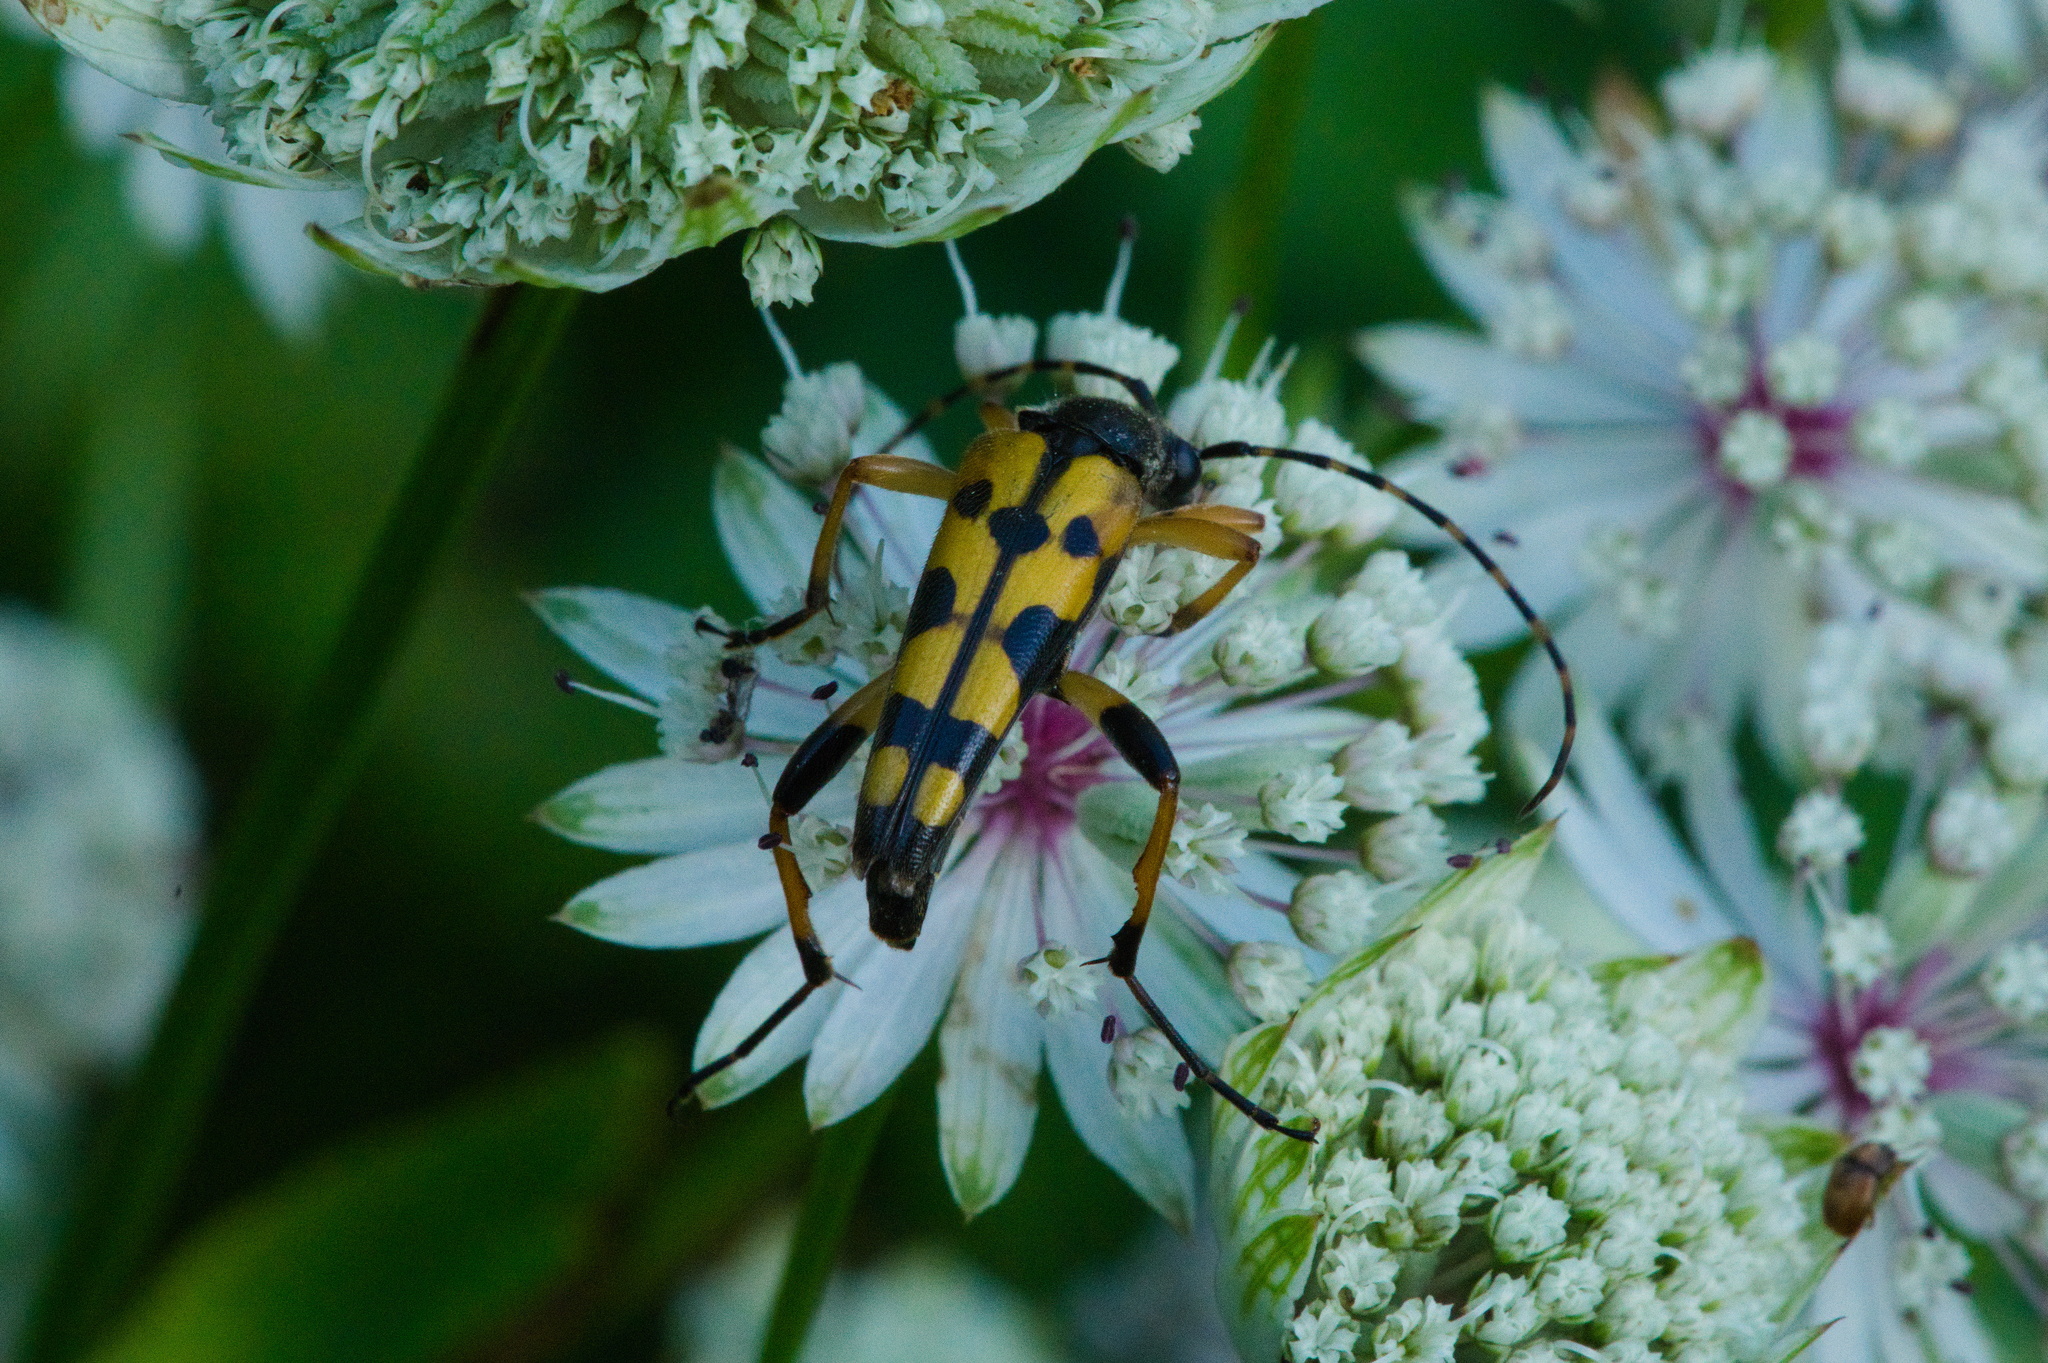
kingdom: Animalia
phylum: Arthropoda
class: Insecta
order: Coleoptera
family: Cerambycidae
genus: Rutpela
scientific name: Rutpela maculata
